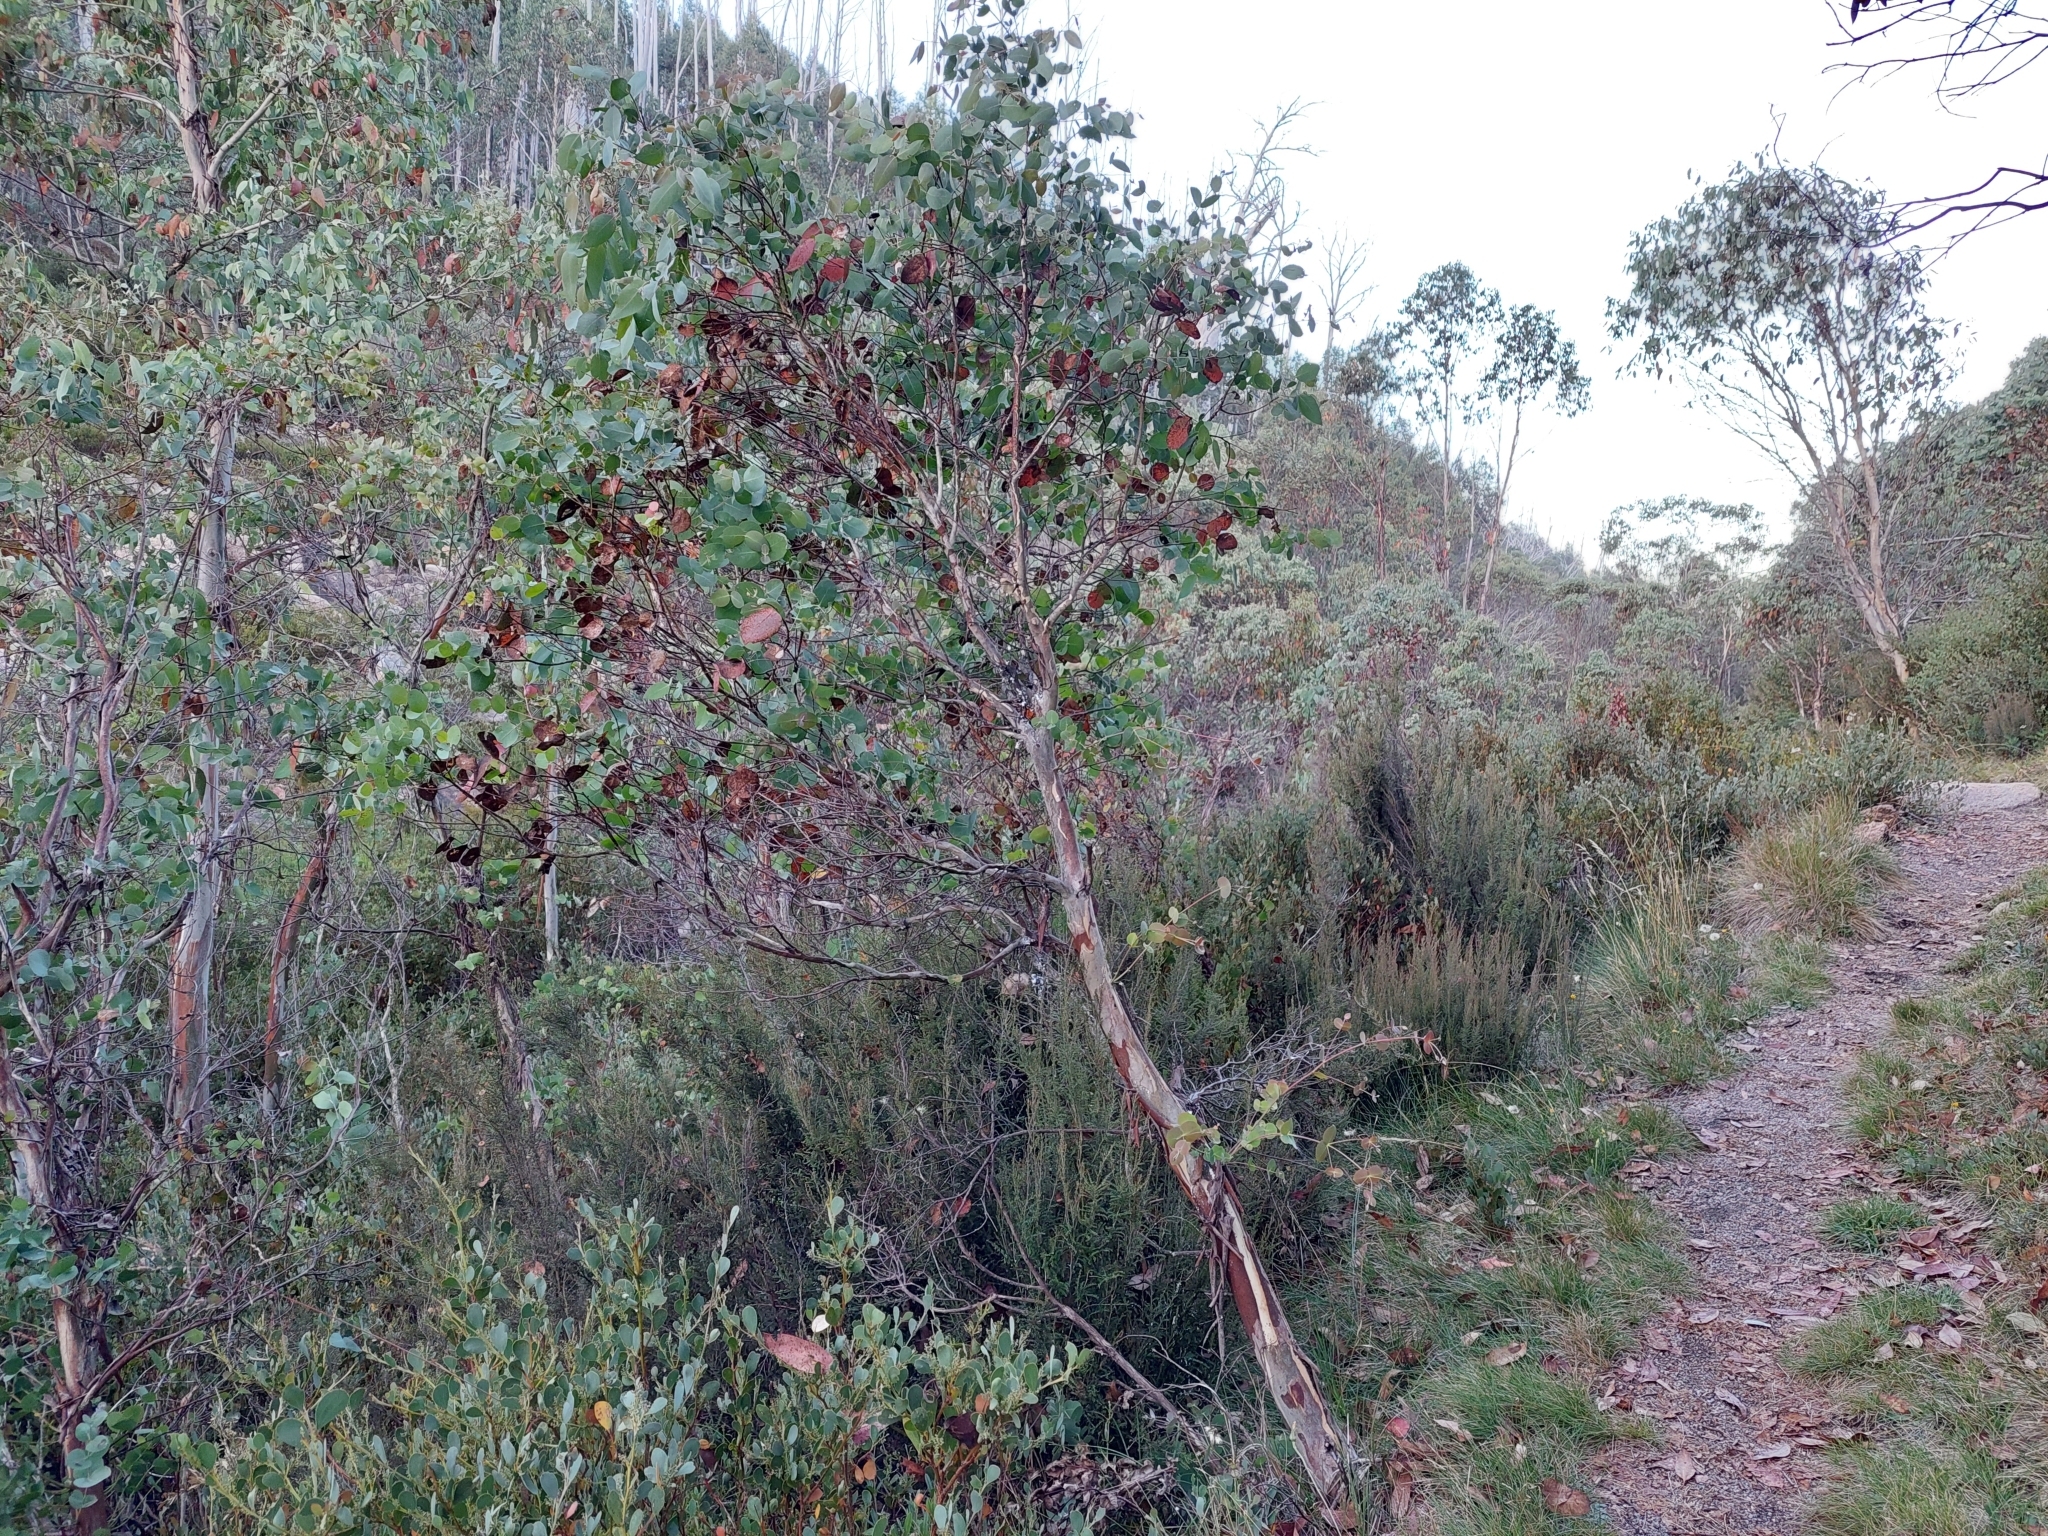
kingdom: Plantae
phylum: Tracheophyta
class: Magnoliopsida
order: Myrtales
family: Myrtaceae
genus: Eucalyptus
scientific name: Eucalyptus dalrympleana
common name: Broad-leaved kindlingbark
